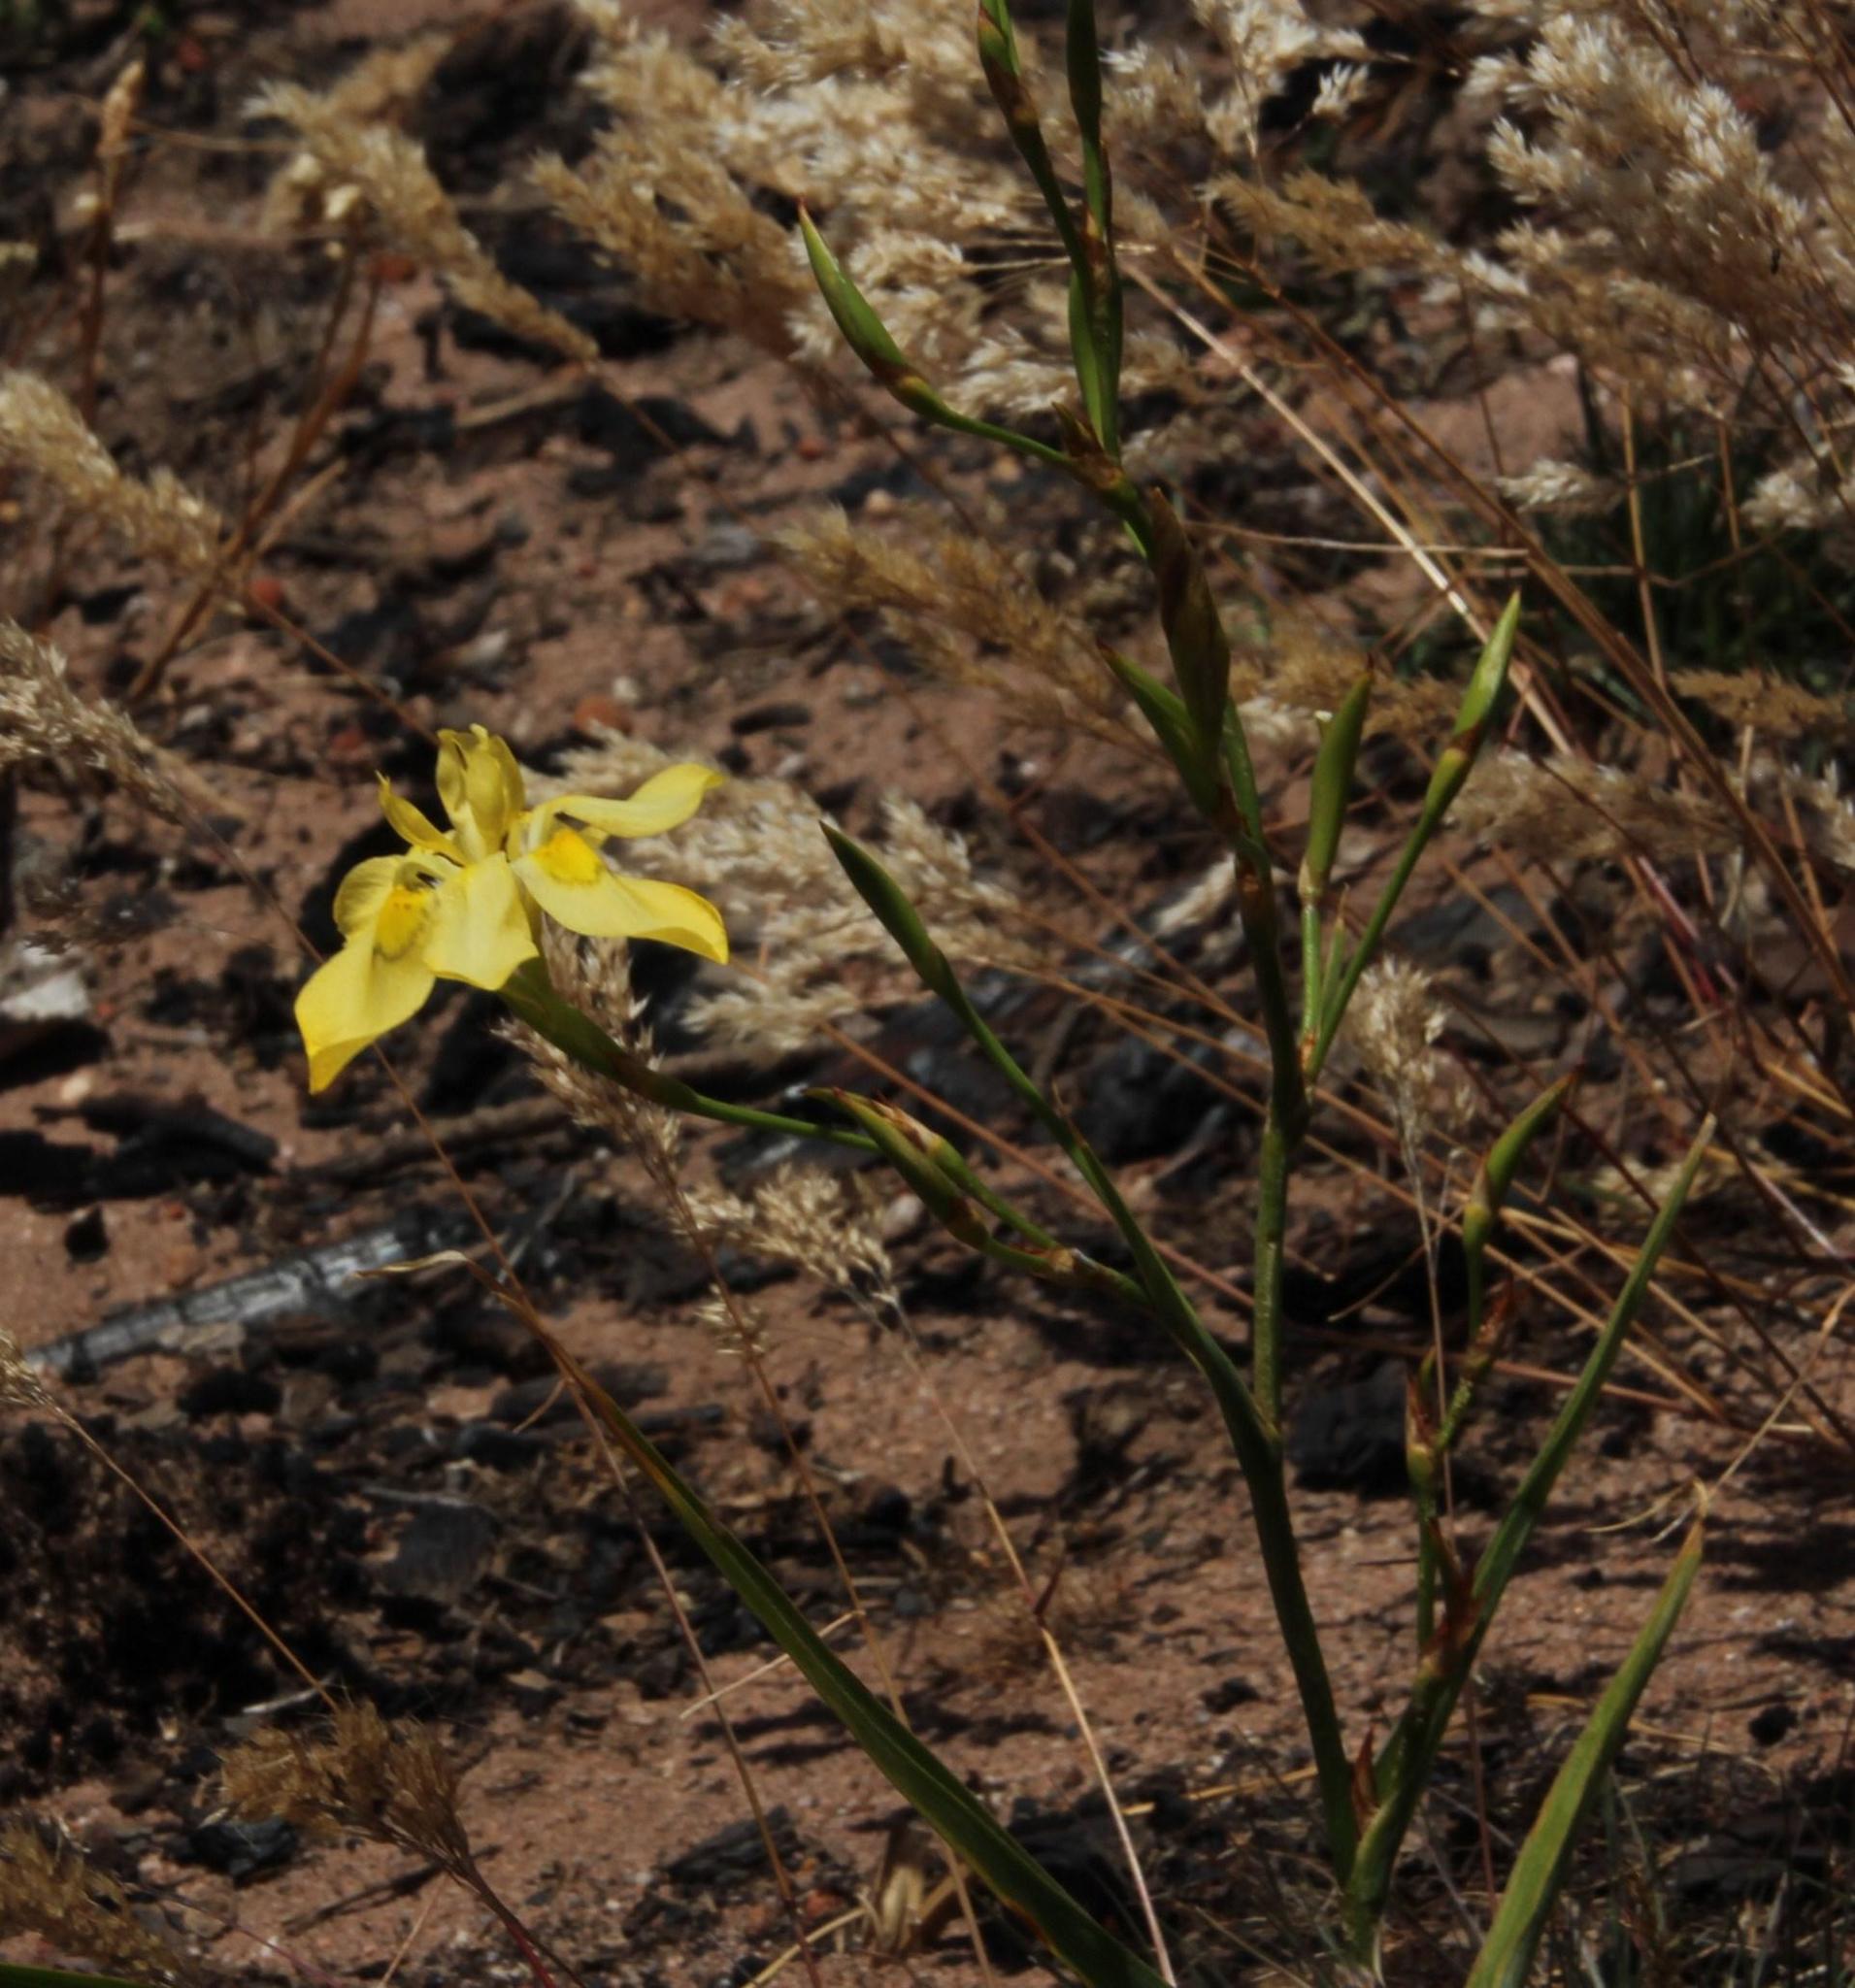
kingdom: Plantae
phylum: Tracheophyta
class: Liliopsida
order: Asparagales
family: Iridaceae
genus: Moraea
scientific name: Moraea ramosissima
